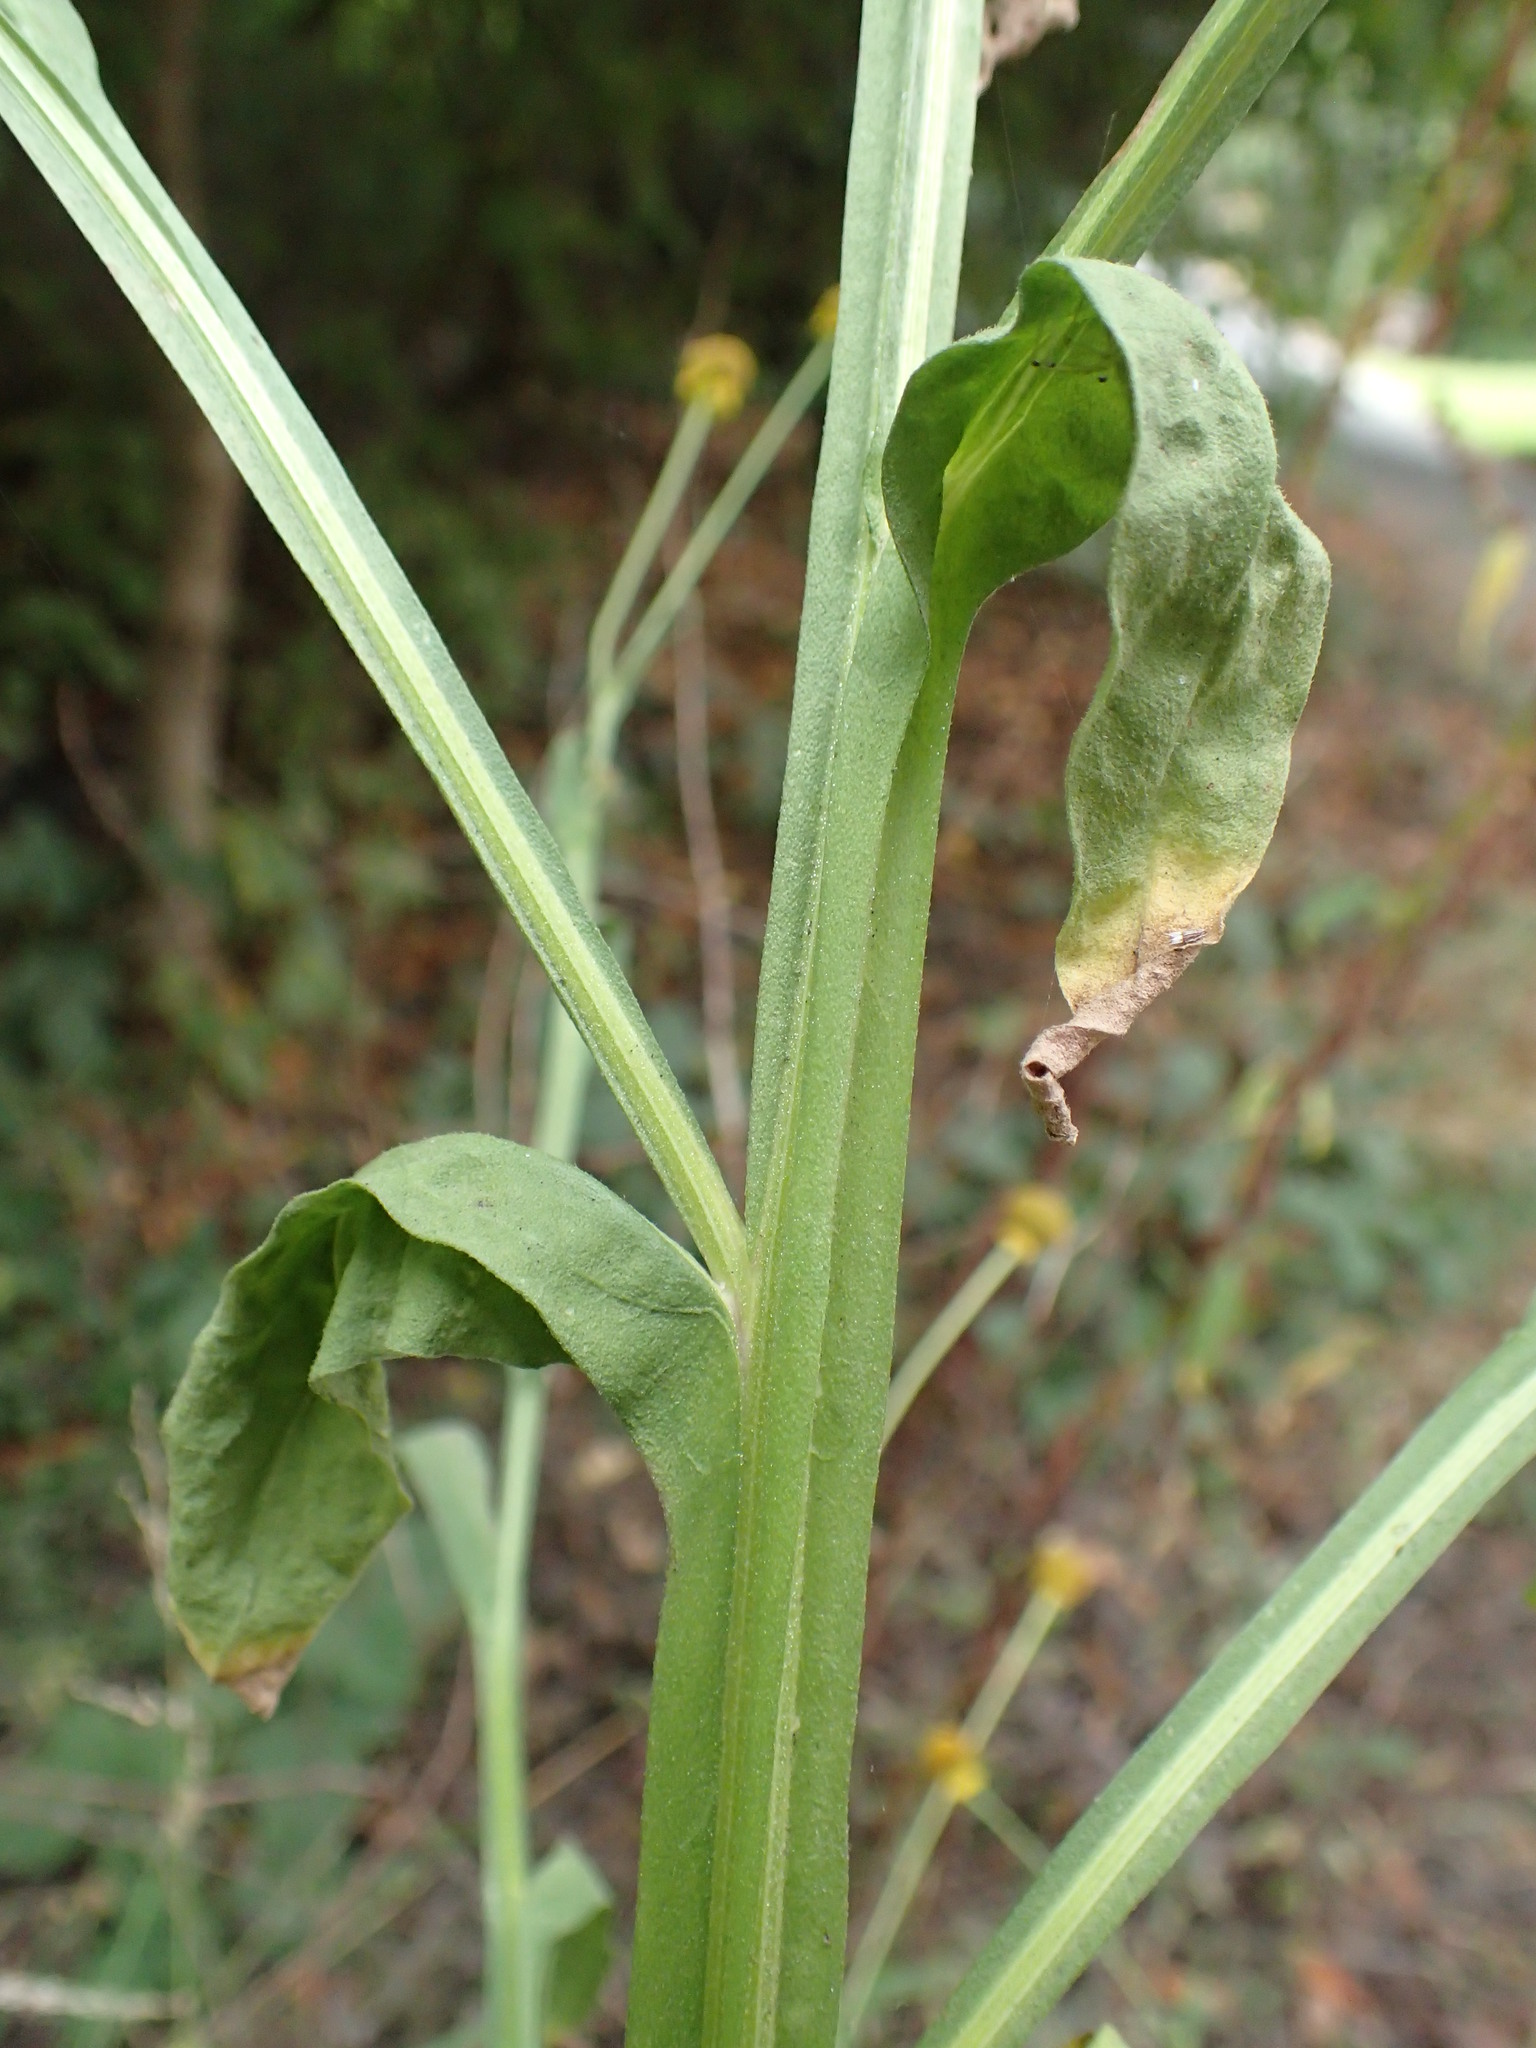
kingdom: Plantae
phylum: Tracheophyta
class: Magnoliopsida
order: Asterales
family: Asteraceae
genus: Helenium
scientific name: Helenium puberulum
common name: Sneezewort
